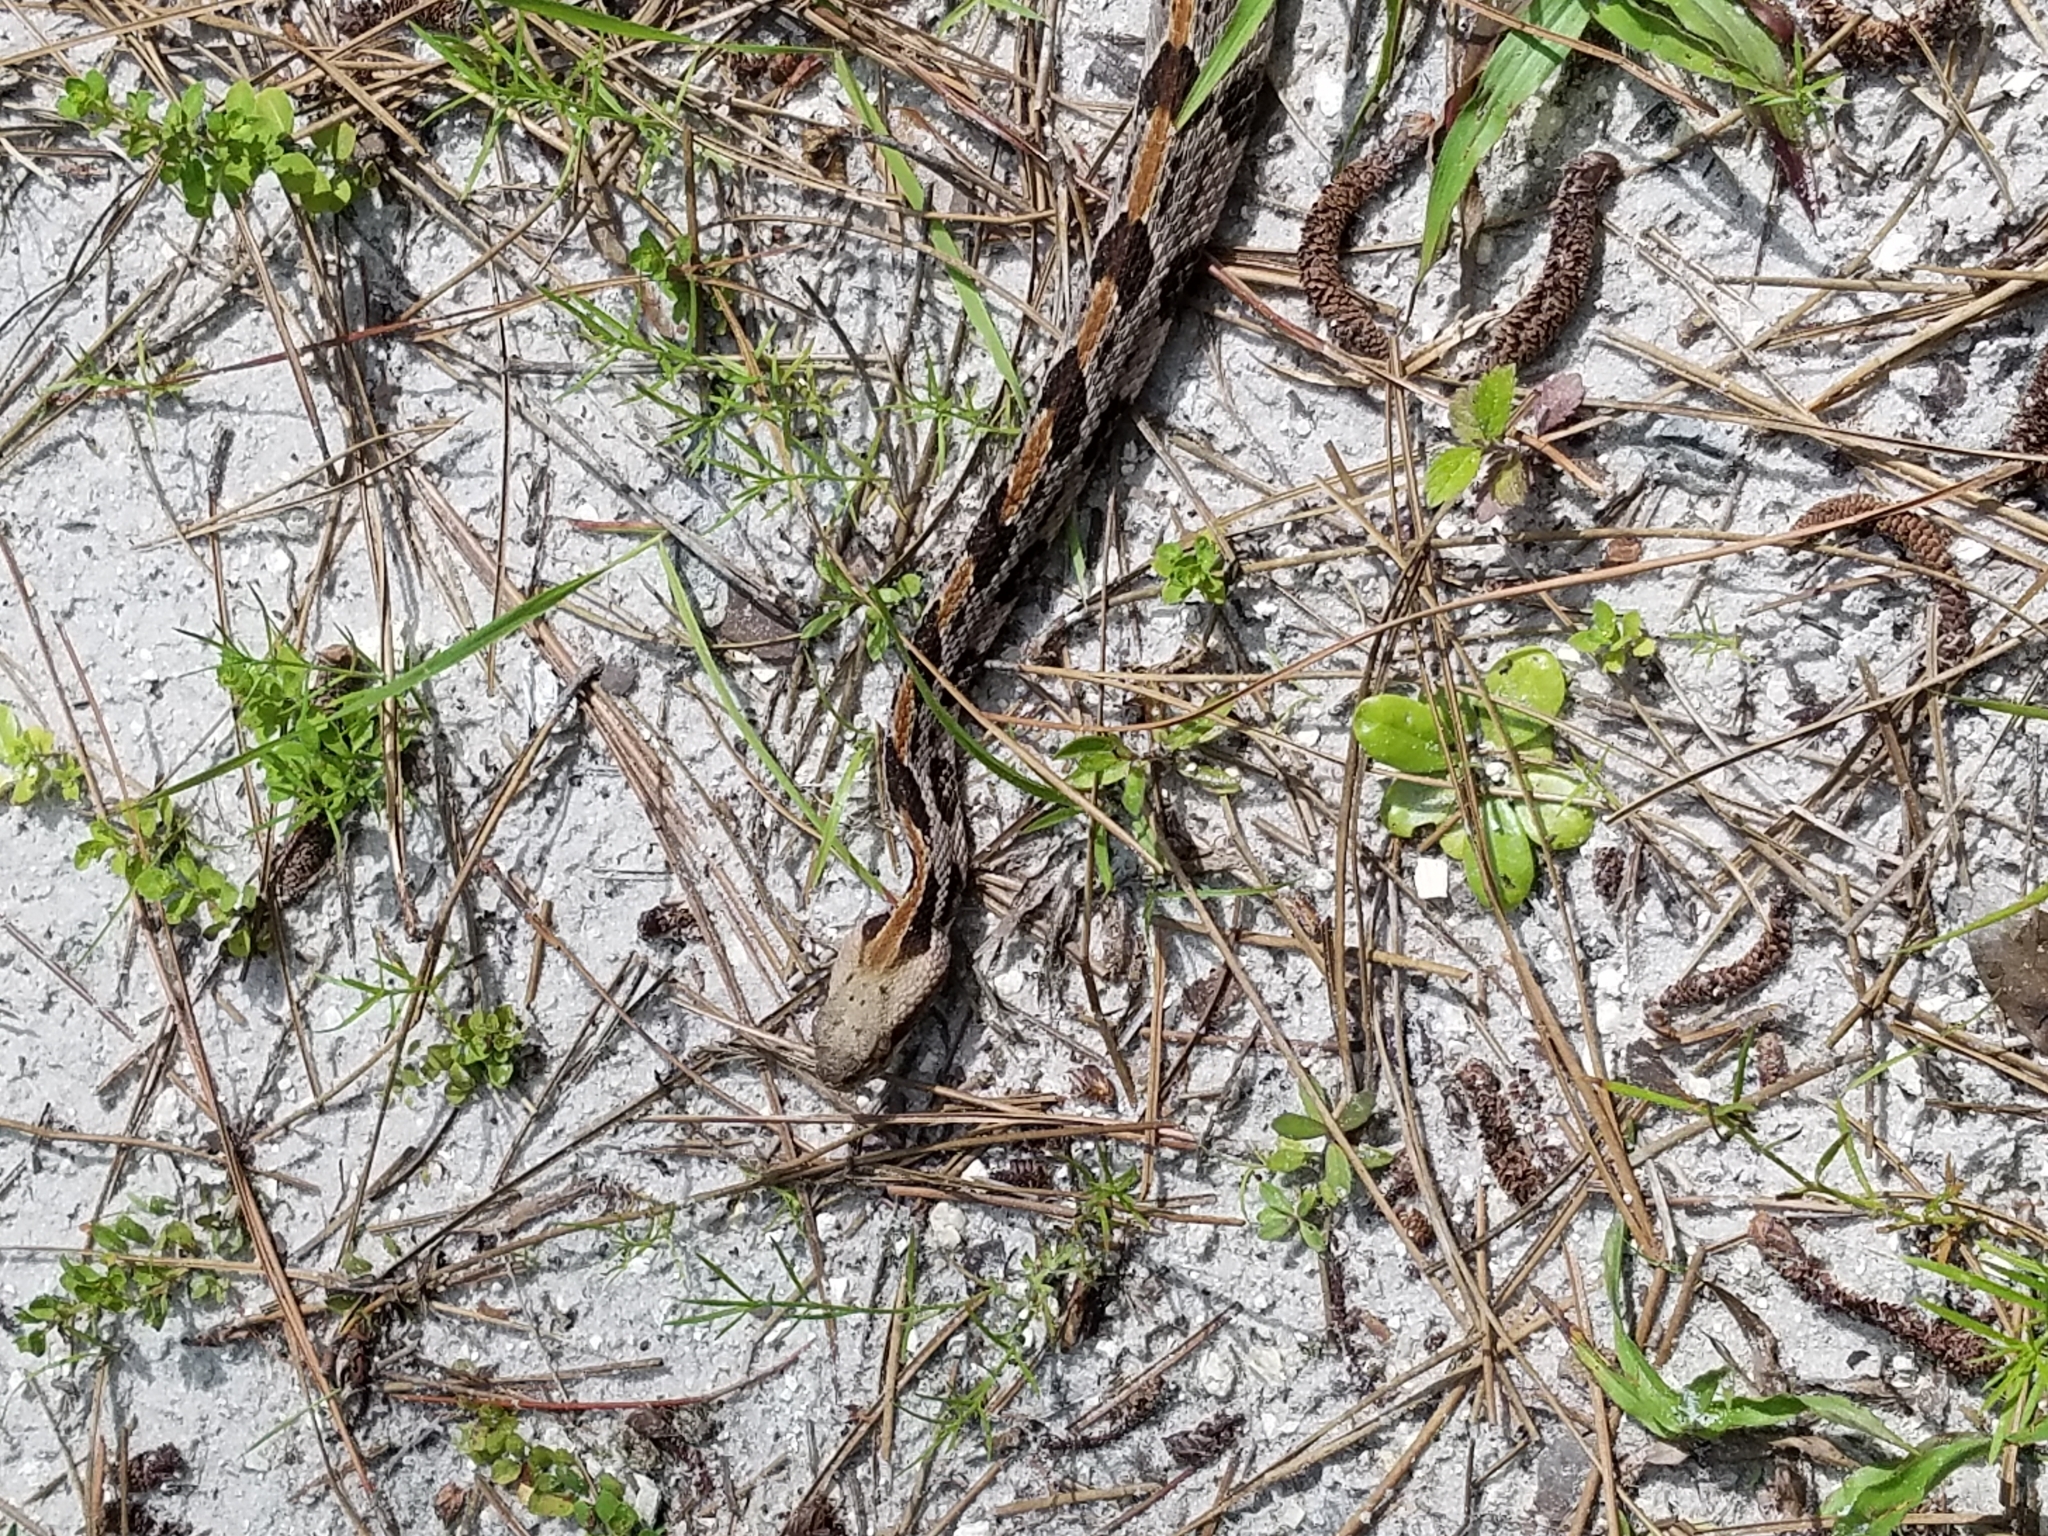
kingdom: Animalia
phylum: Chordata
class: Squamata
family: Viperidae
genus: Crotalus
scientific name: Crotalus horridus
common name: Timber rattlesnake
